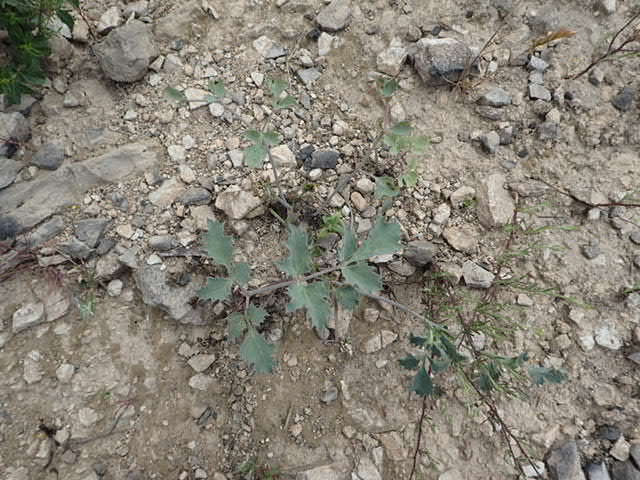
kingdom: Plantae
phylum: Tracheophyta
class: Magnoliopsida
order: Apiales
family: Apiaceae
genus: Lomatium
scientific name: Lomatium repostum
